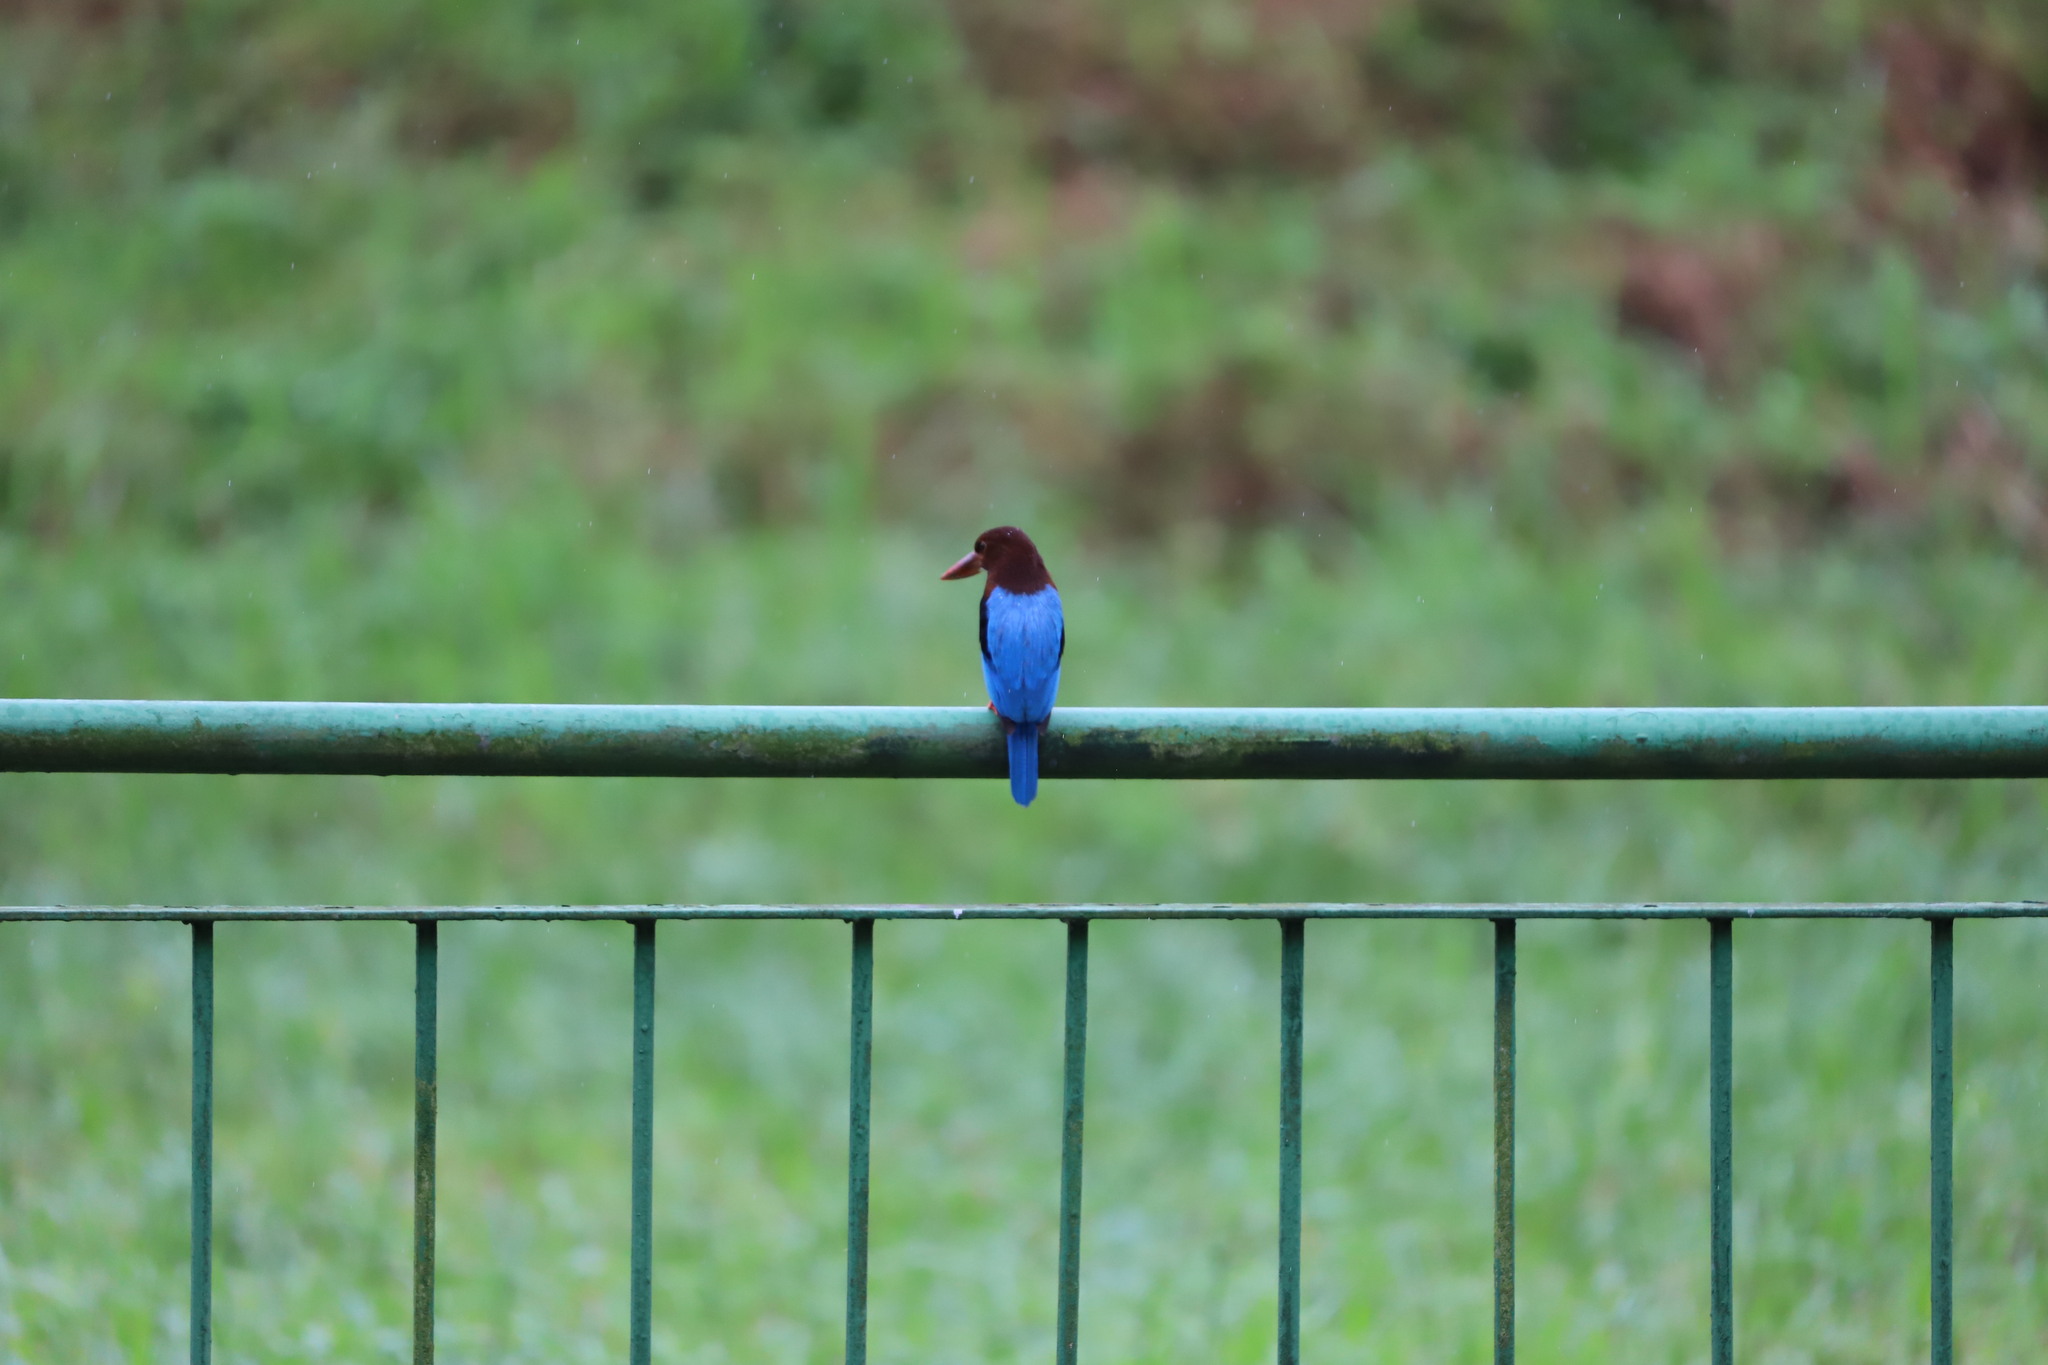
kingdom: Animalia
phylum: Chordata
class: Aves
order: Coraciiformes
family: Alcedinidae
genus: Halcyon
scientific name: Halcyon smyrnensis
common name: White-throated kingfisher
